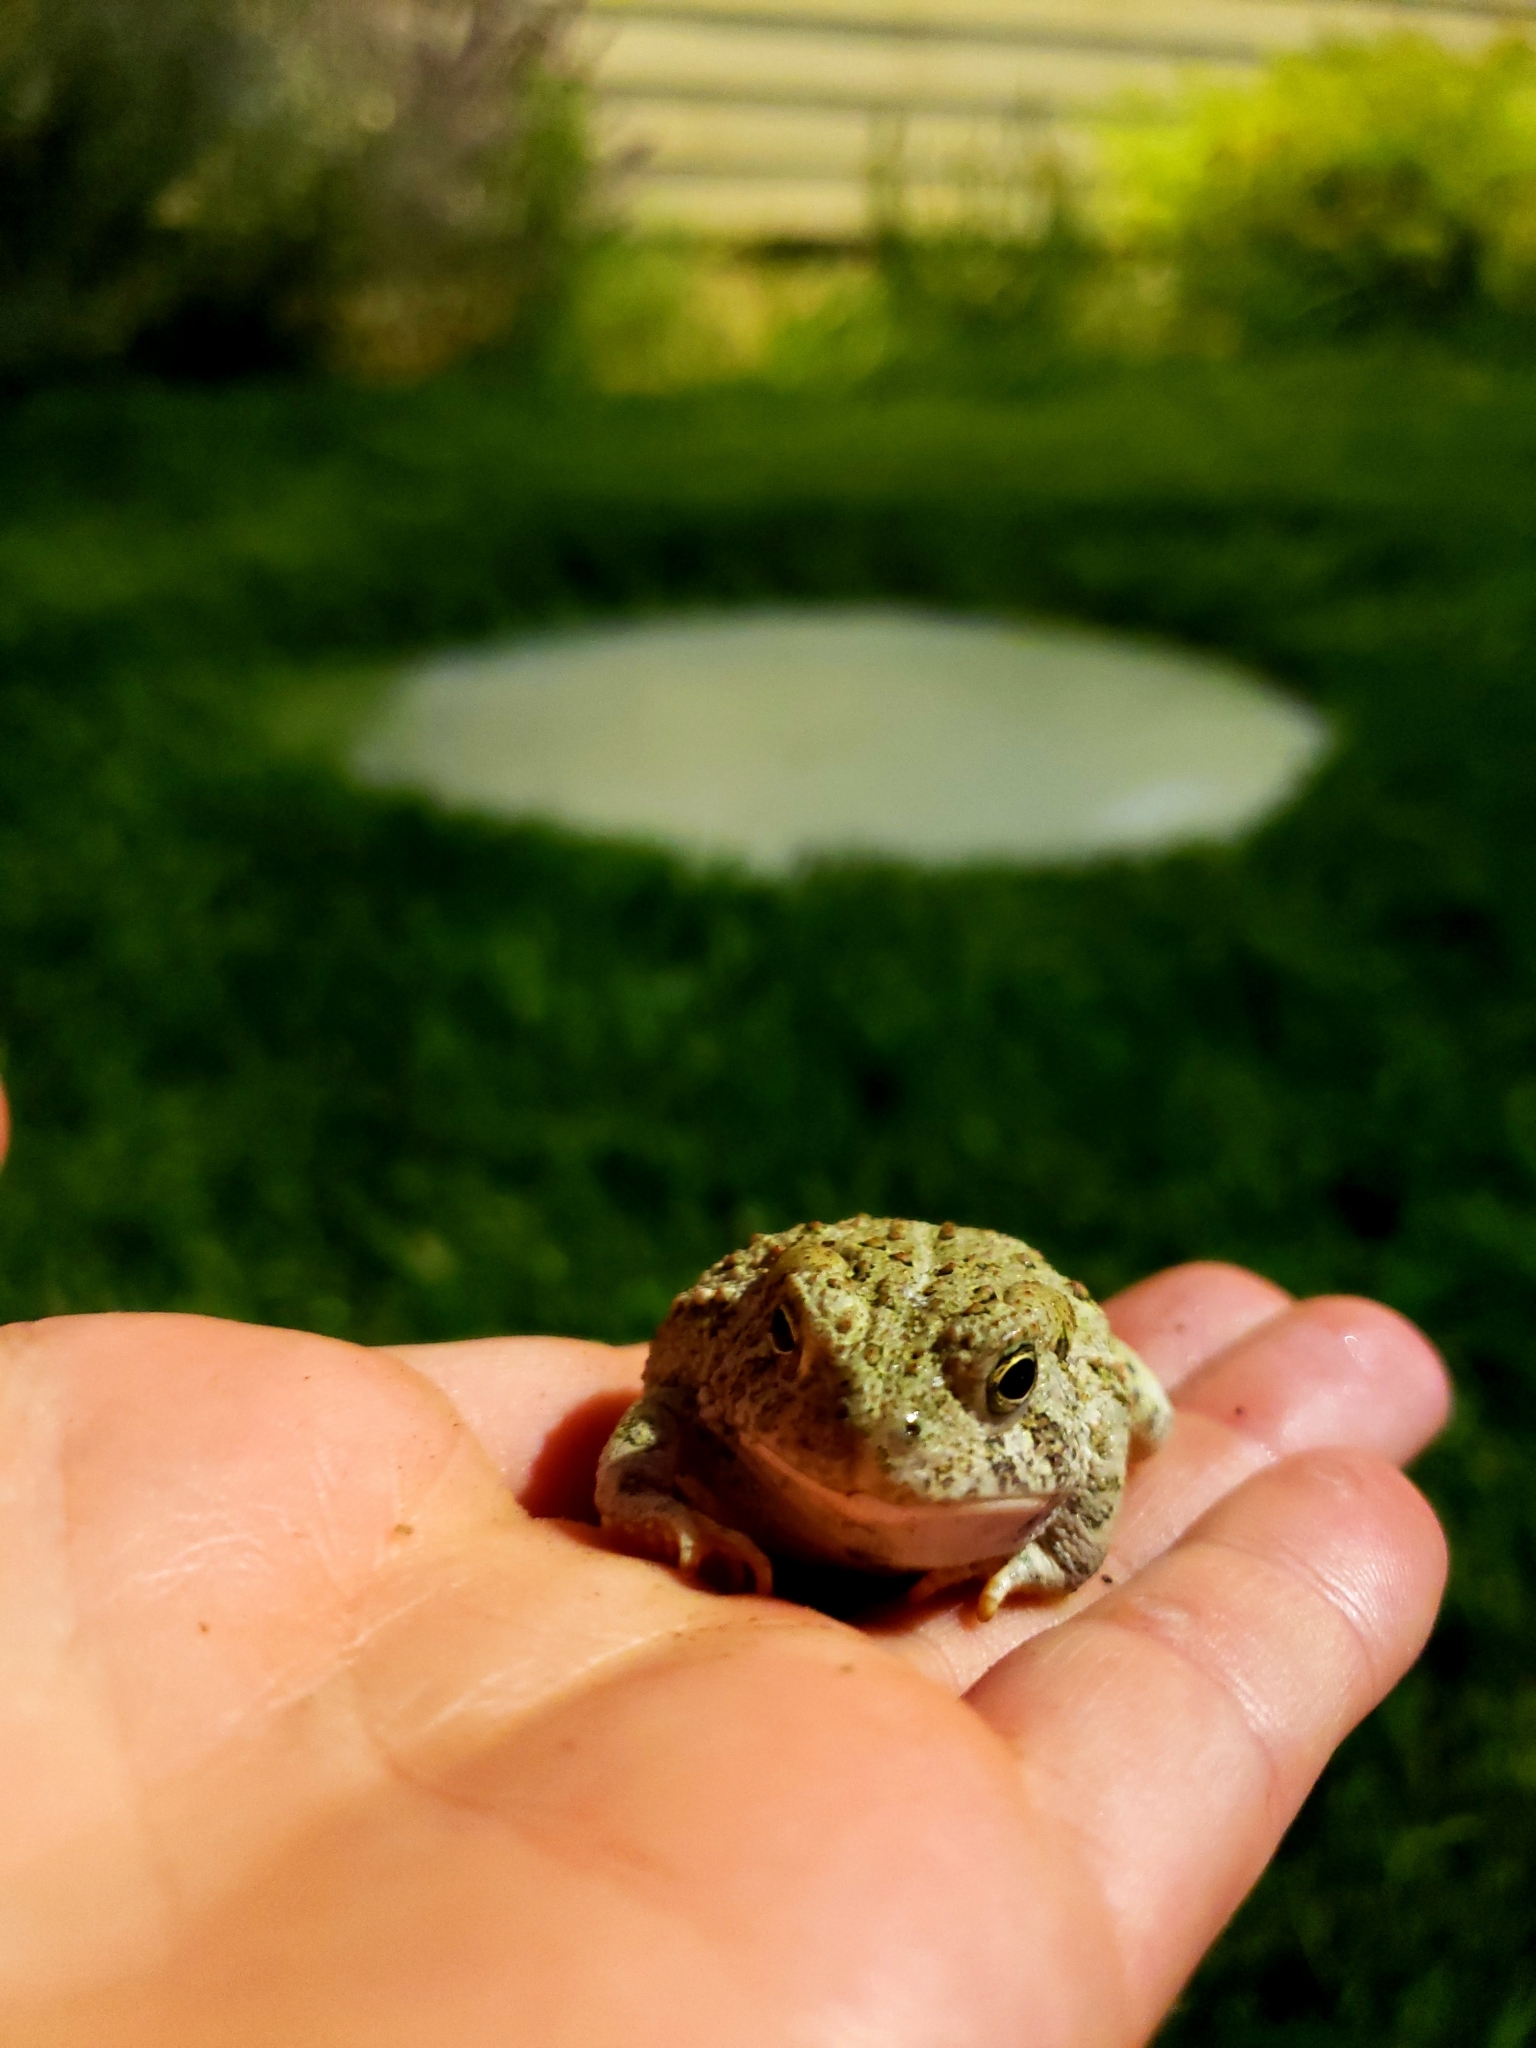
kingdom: Animalia
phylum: Chordata
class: Amphibia
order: Anura
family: Bufonidae
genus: Anaxyrus
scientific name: Anaxyrus woodhousii
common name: Woodhouse's toad
